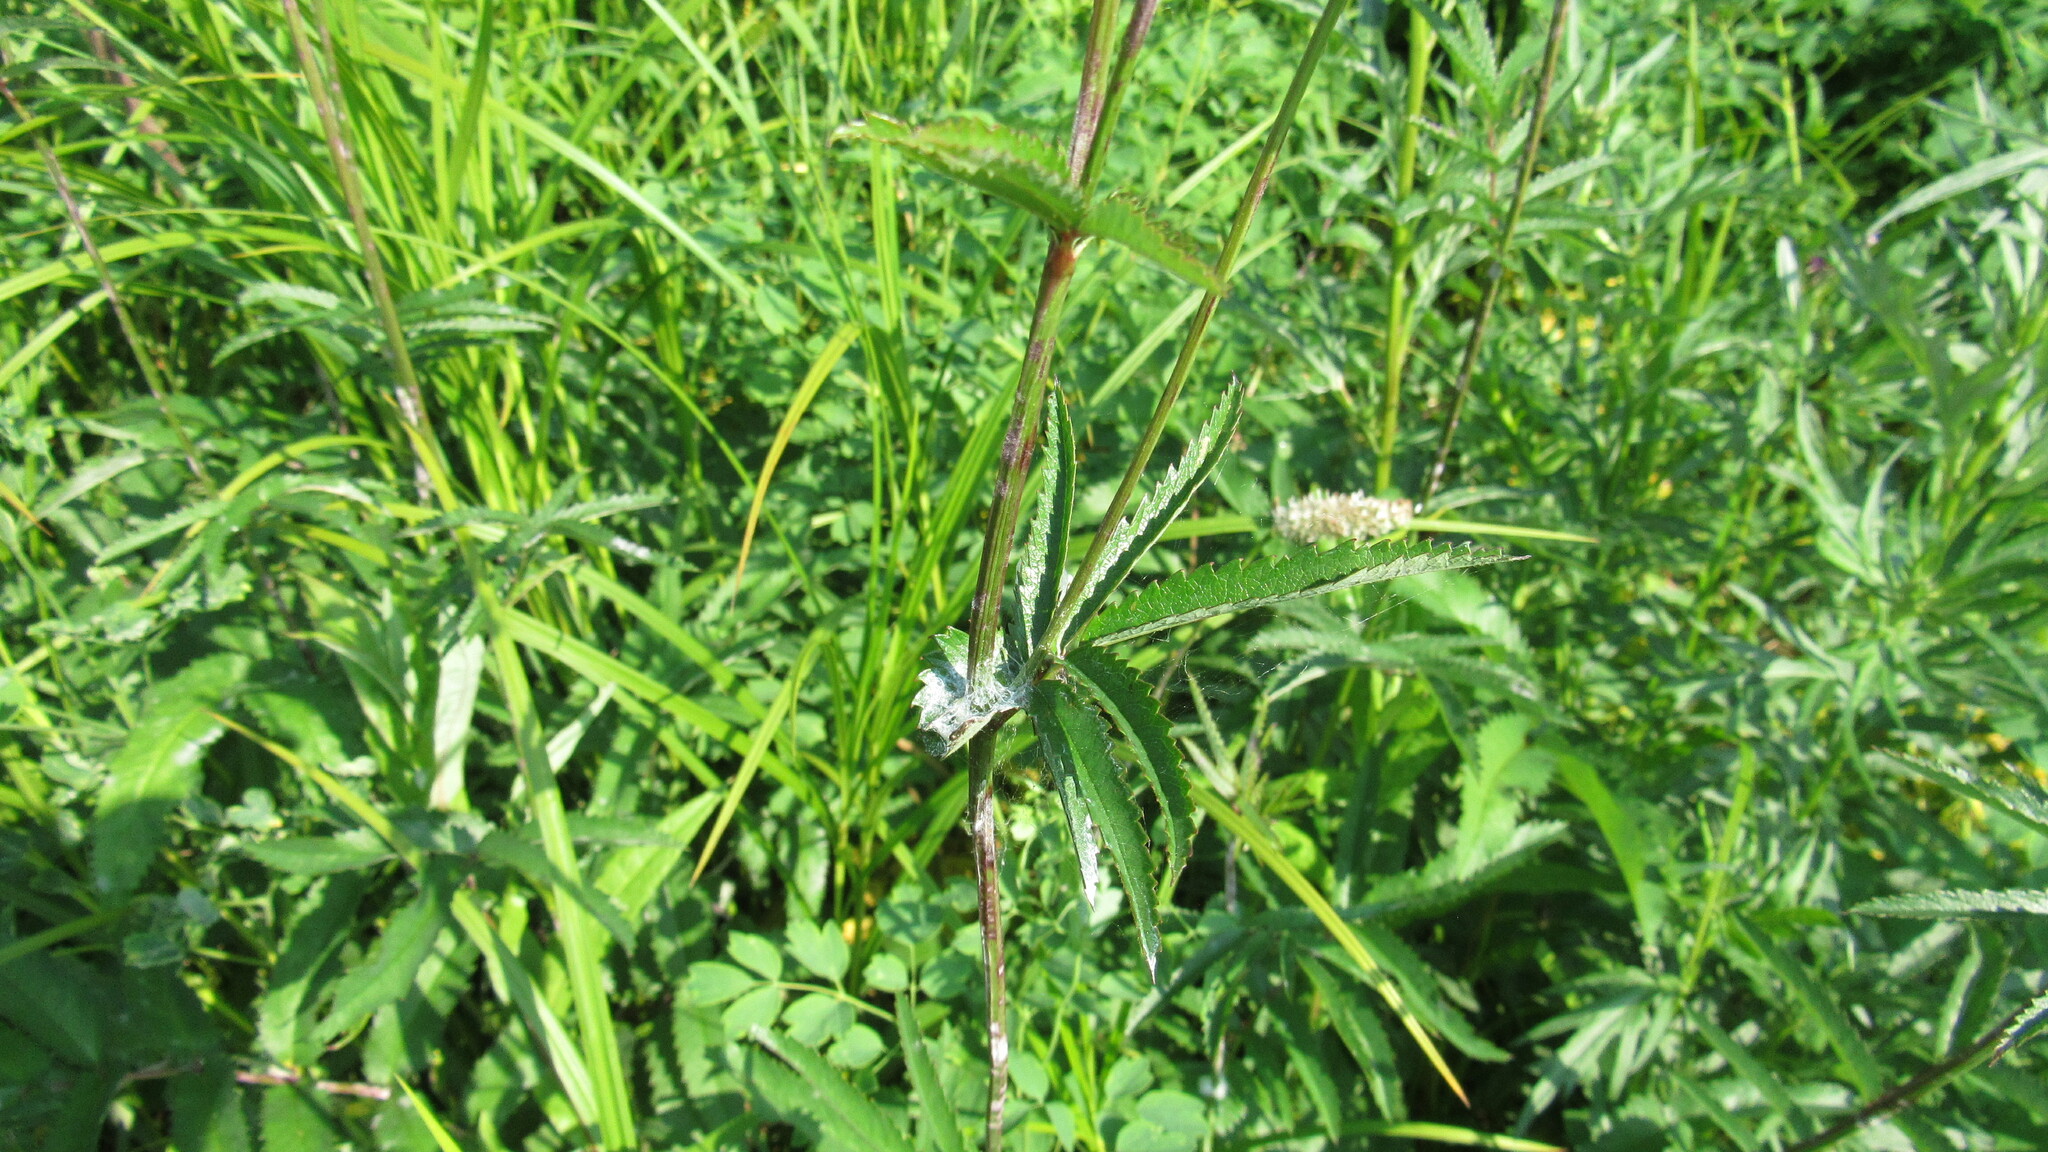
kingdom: Plantae
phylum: Tracheophyta
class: Magnoliopsida
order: Rosales
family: Rosaceae
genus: Poterium
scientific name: Poterium tenuifolium
